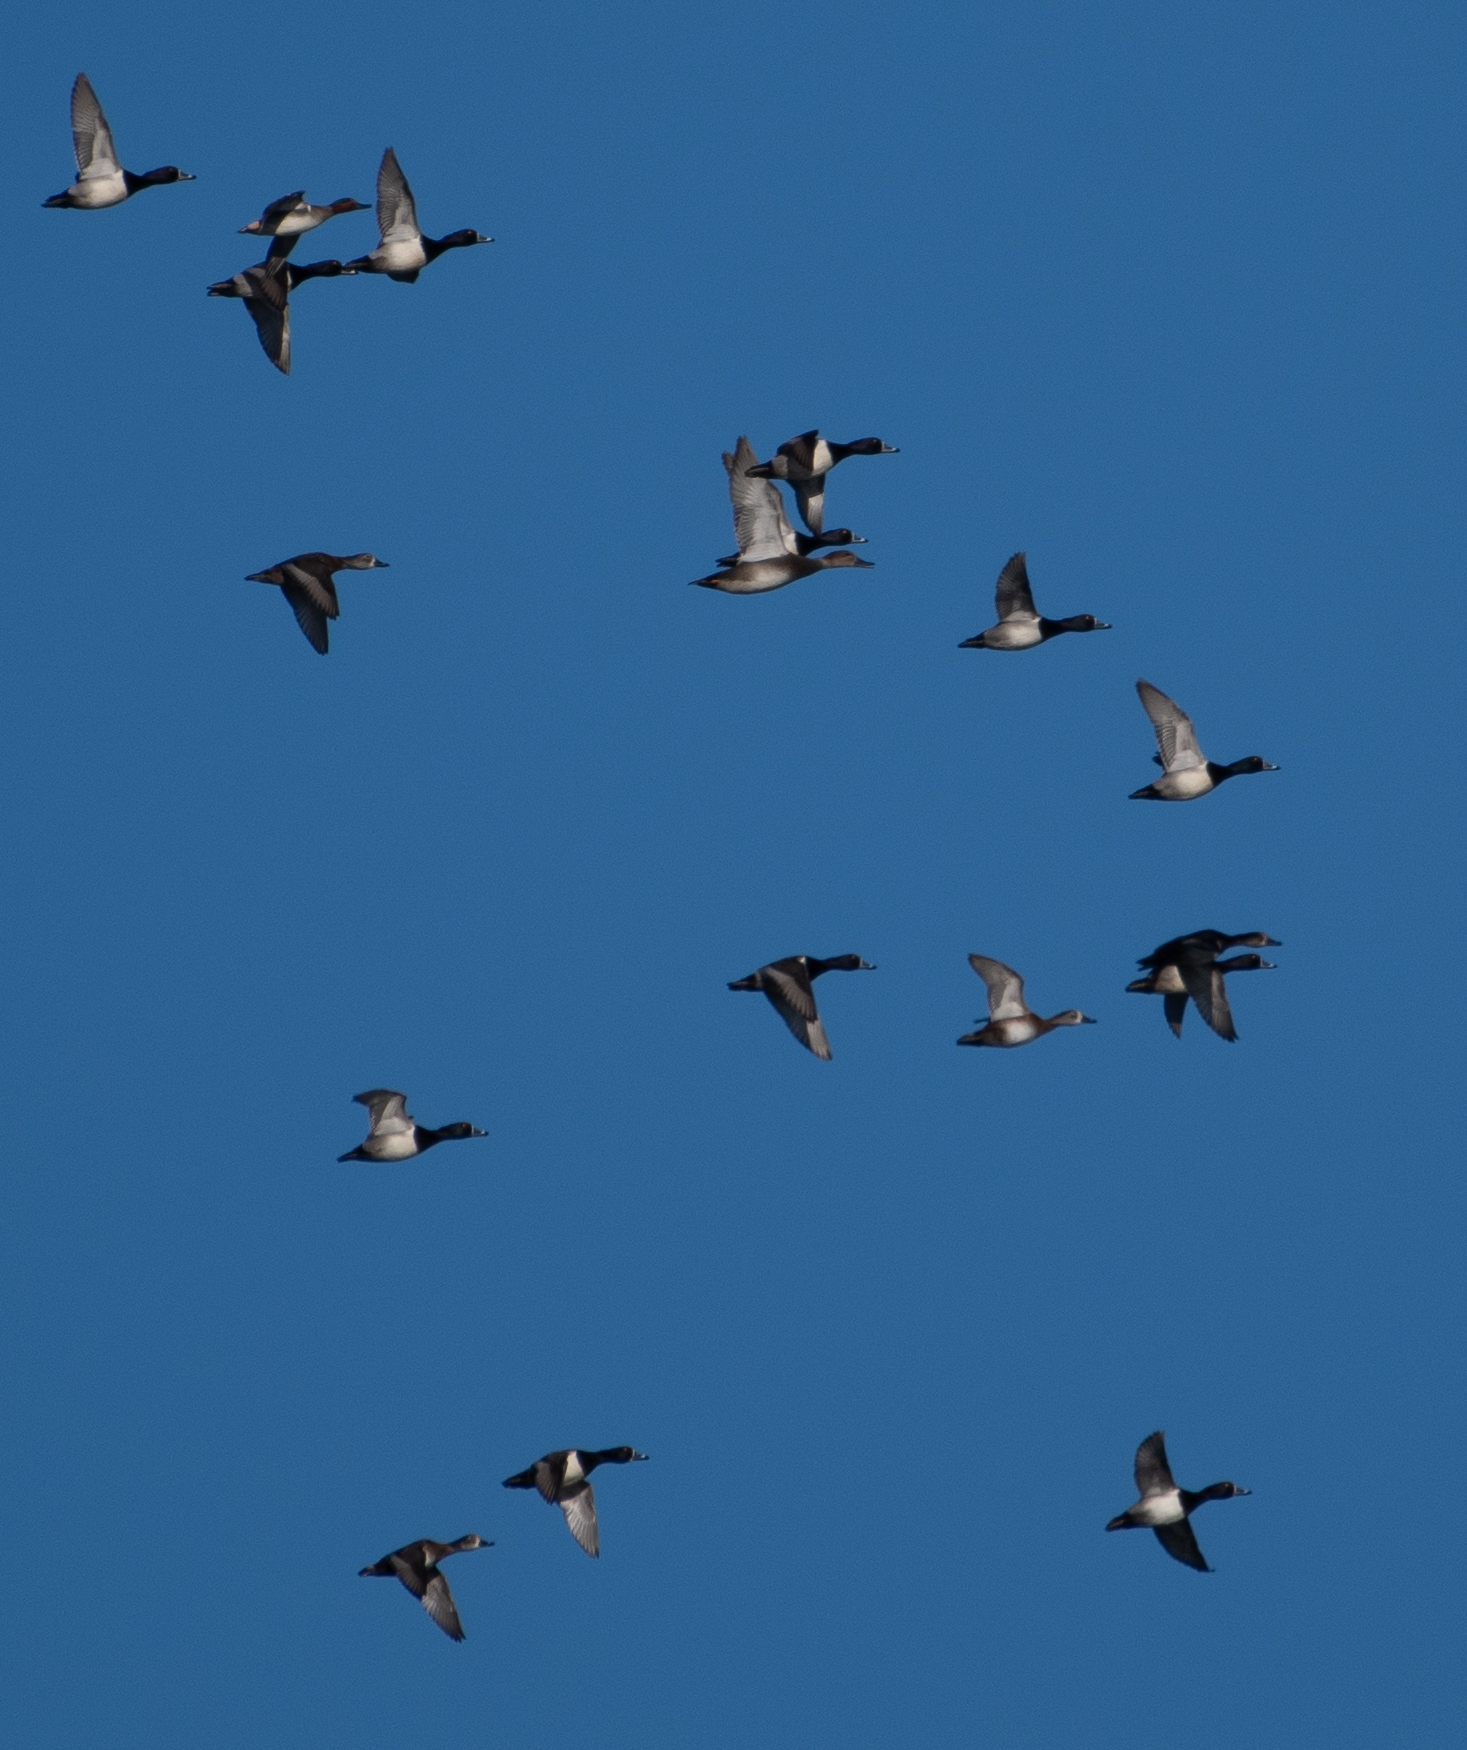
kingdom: Animalia
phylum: Chordata
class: Aves
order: Anseriformes
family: Anatidae
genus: Aythya
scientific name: Aythya collaris
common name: Ring-necked duck
